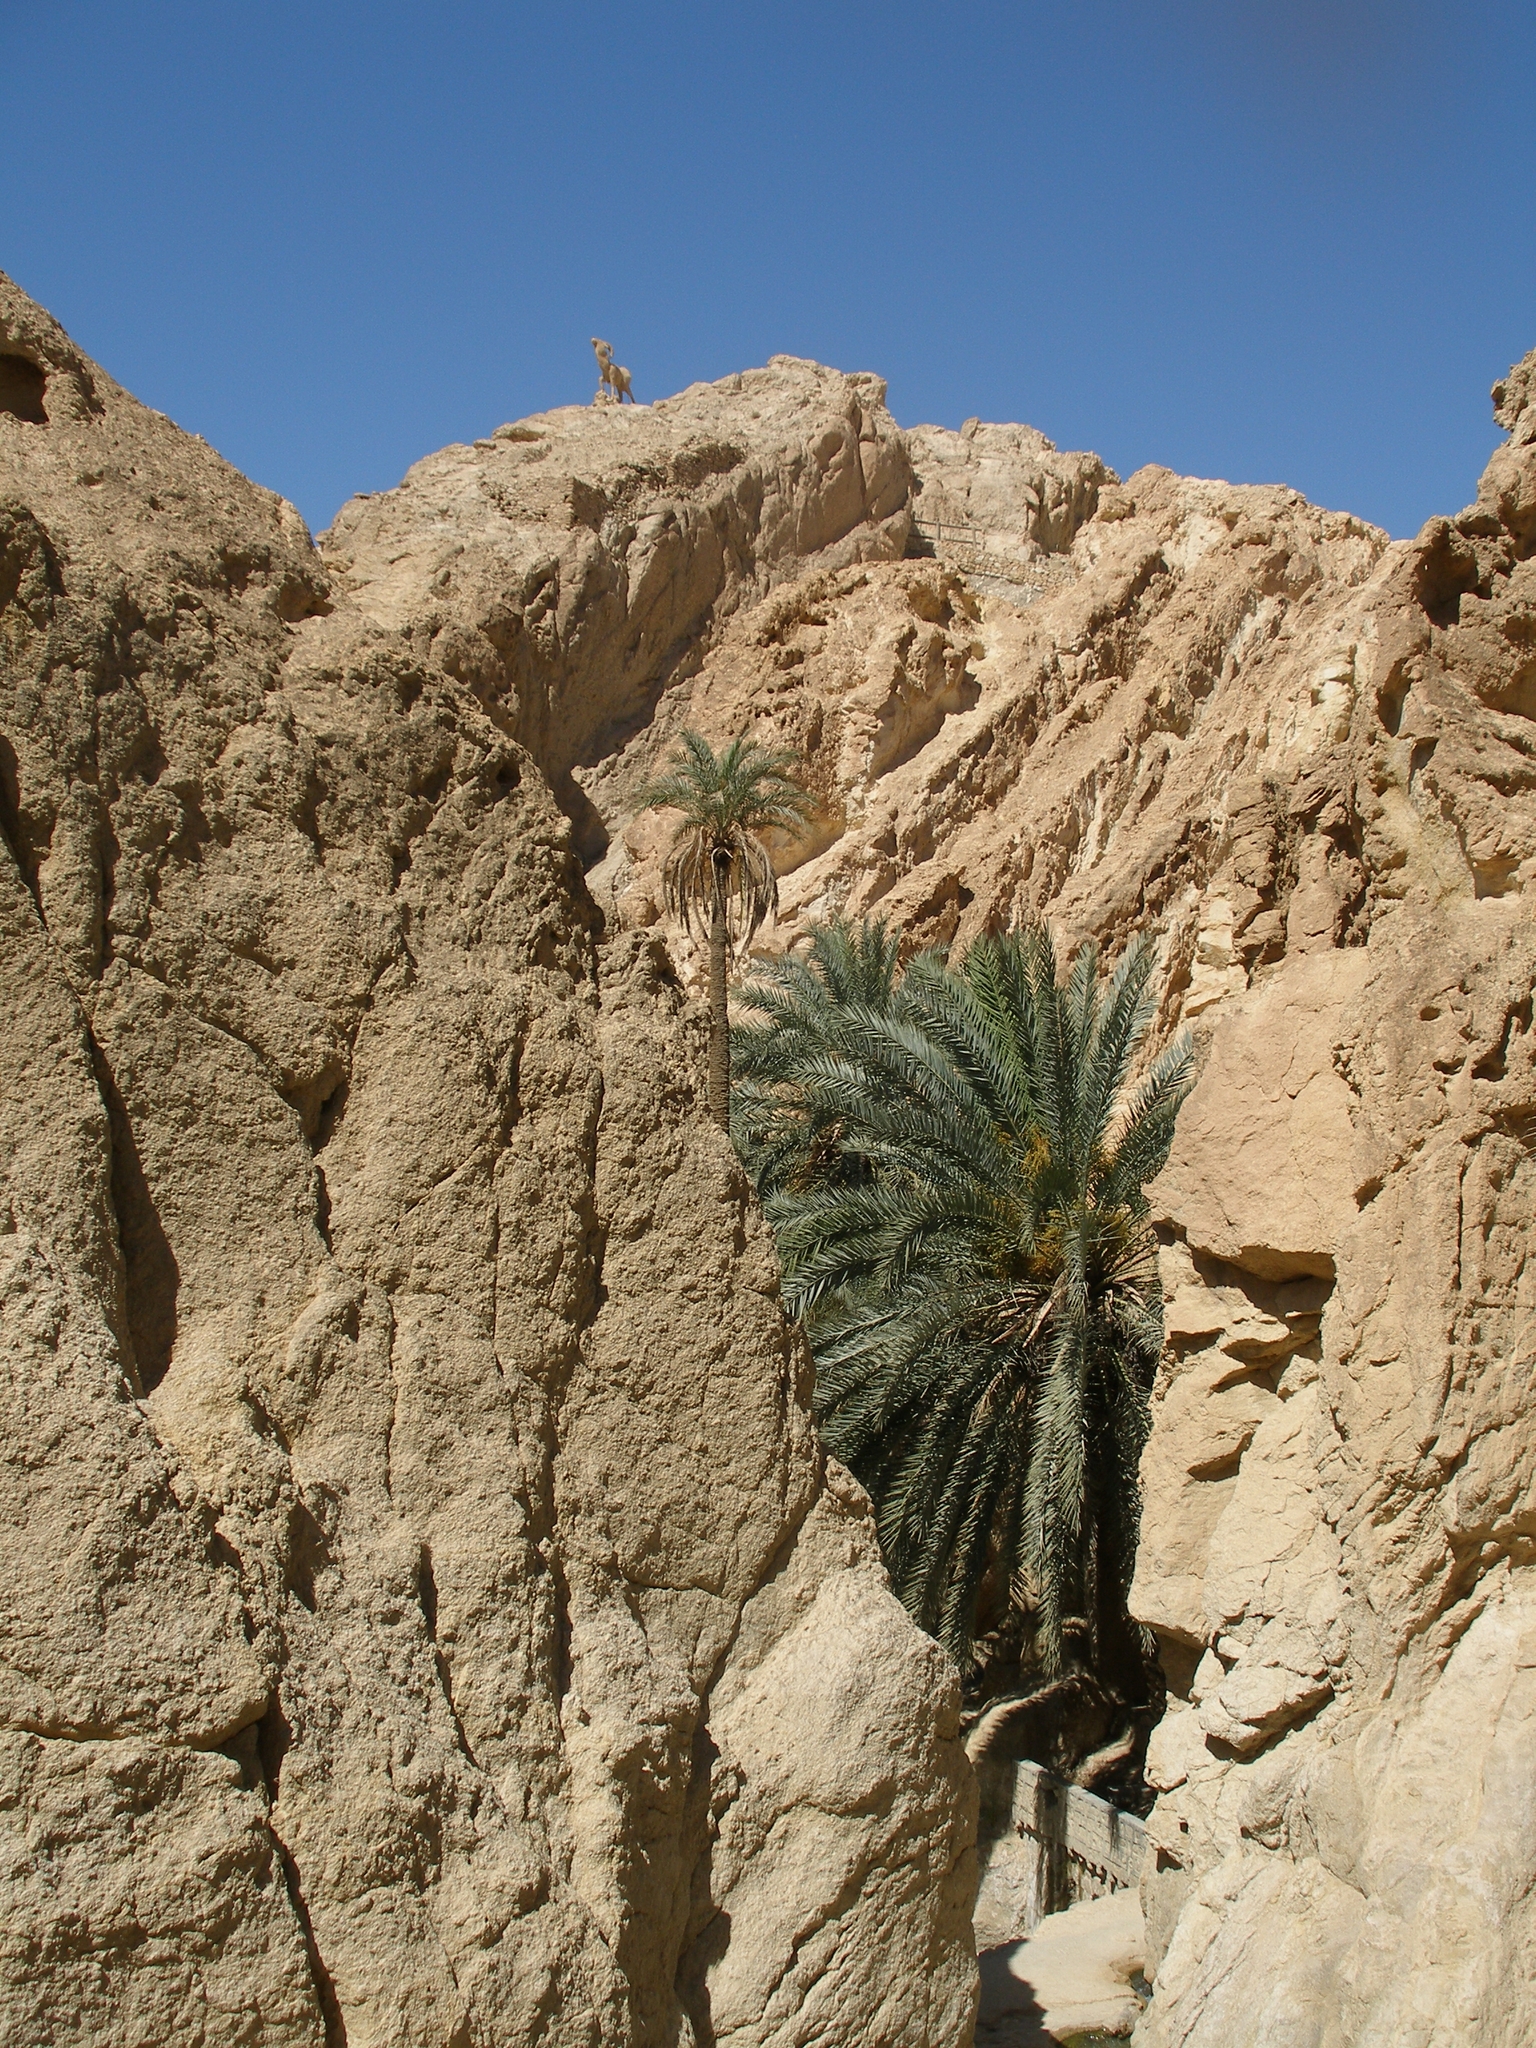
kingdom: Plantae
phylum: Tracheophyta
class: Liliopsida
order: Arecales
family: Arecaceae
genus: Phoenix
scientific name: Phoenix dactylifera
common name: Date palm
